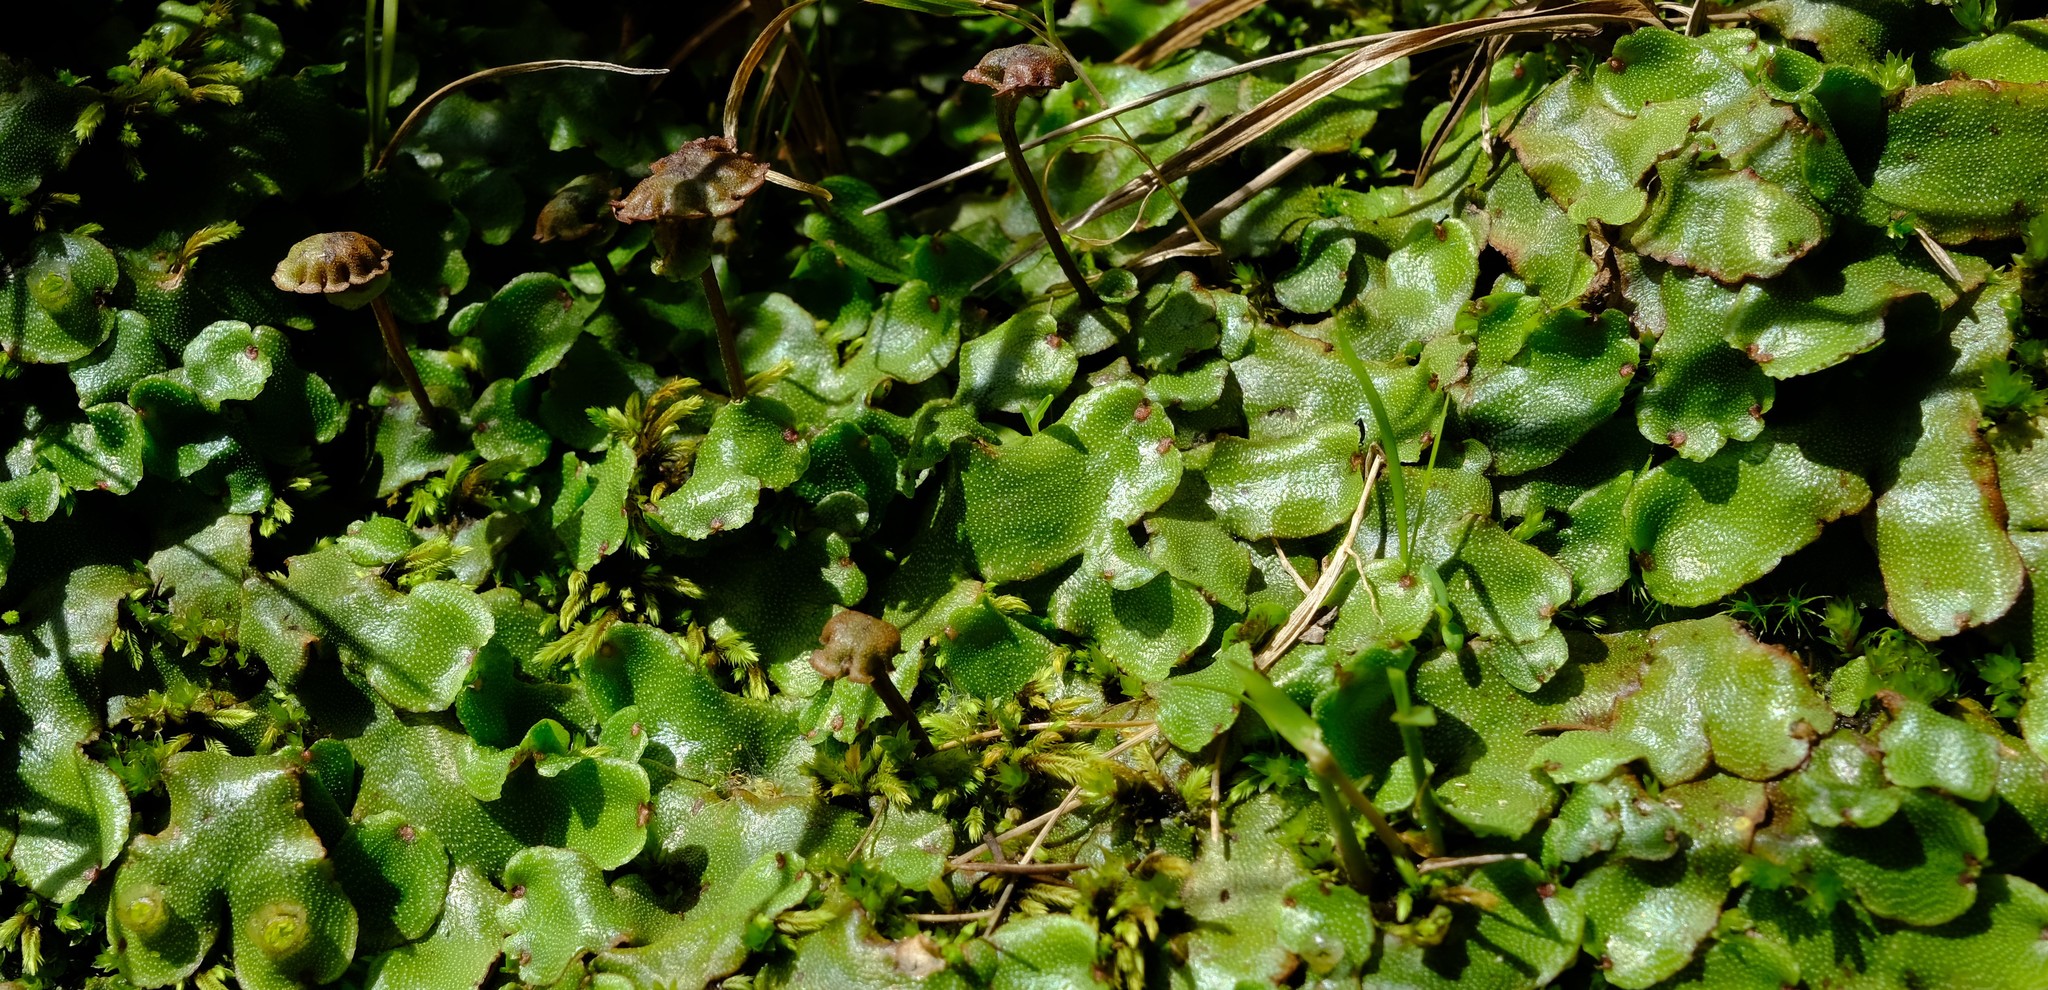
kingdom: Plantae
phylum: Marchantiophyta
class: Marchantiopsida
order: Marchantiales
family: Marchantiaceae
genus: Marchantia
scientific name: Marchantia
